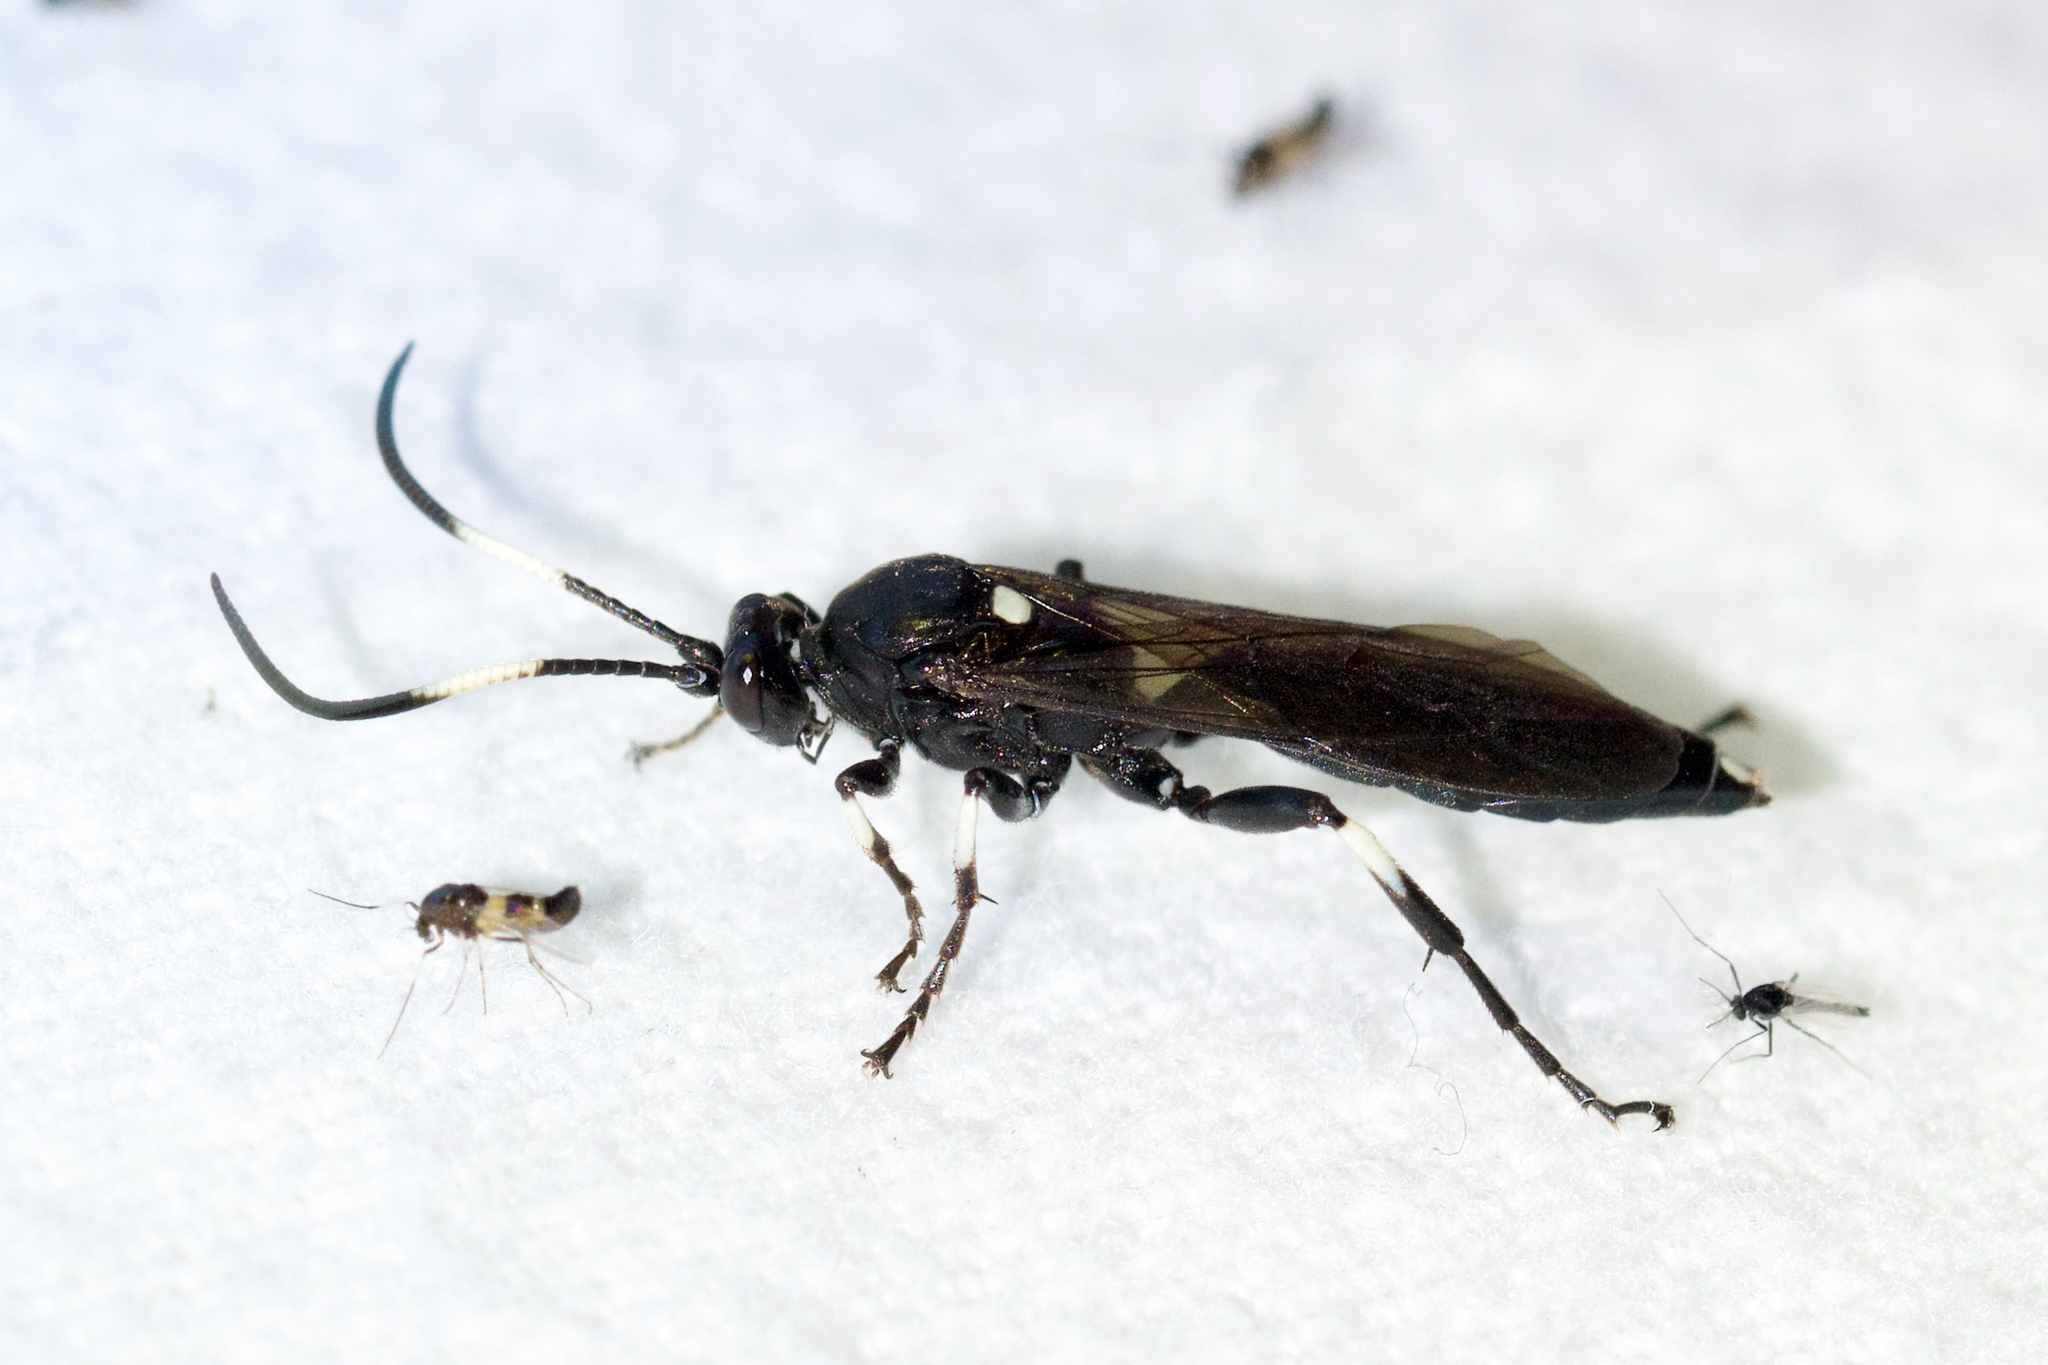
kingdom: Animalia
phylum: Arthropoda
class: Insecta
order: Hymenoptera
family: Ichneumonidae
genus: Coelichneumon
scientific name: Coelichneumon deliratorius
